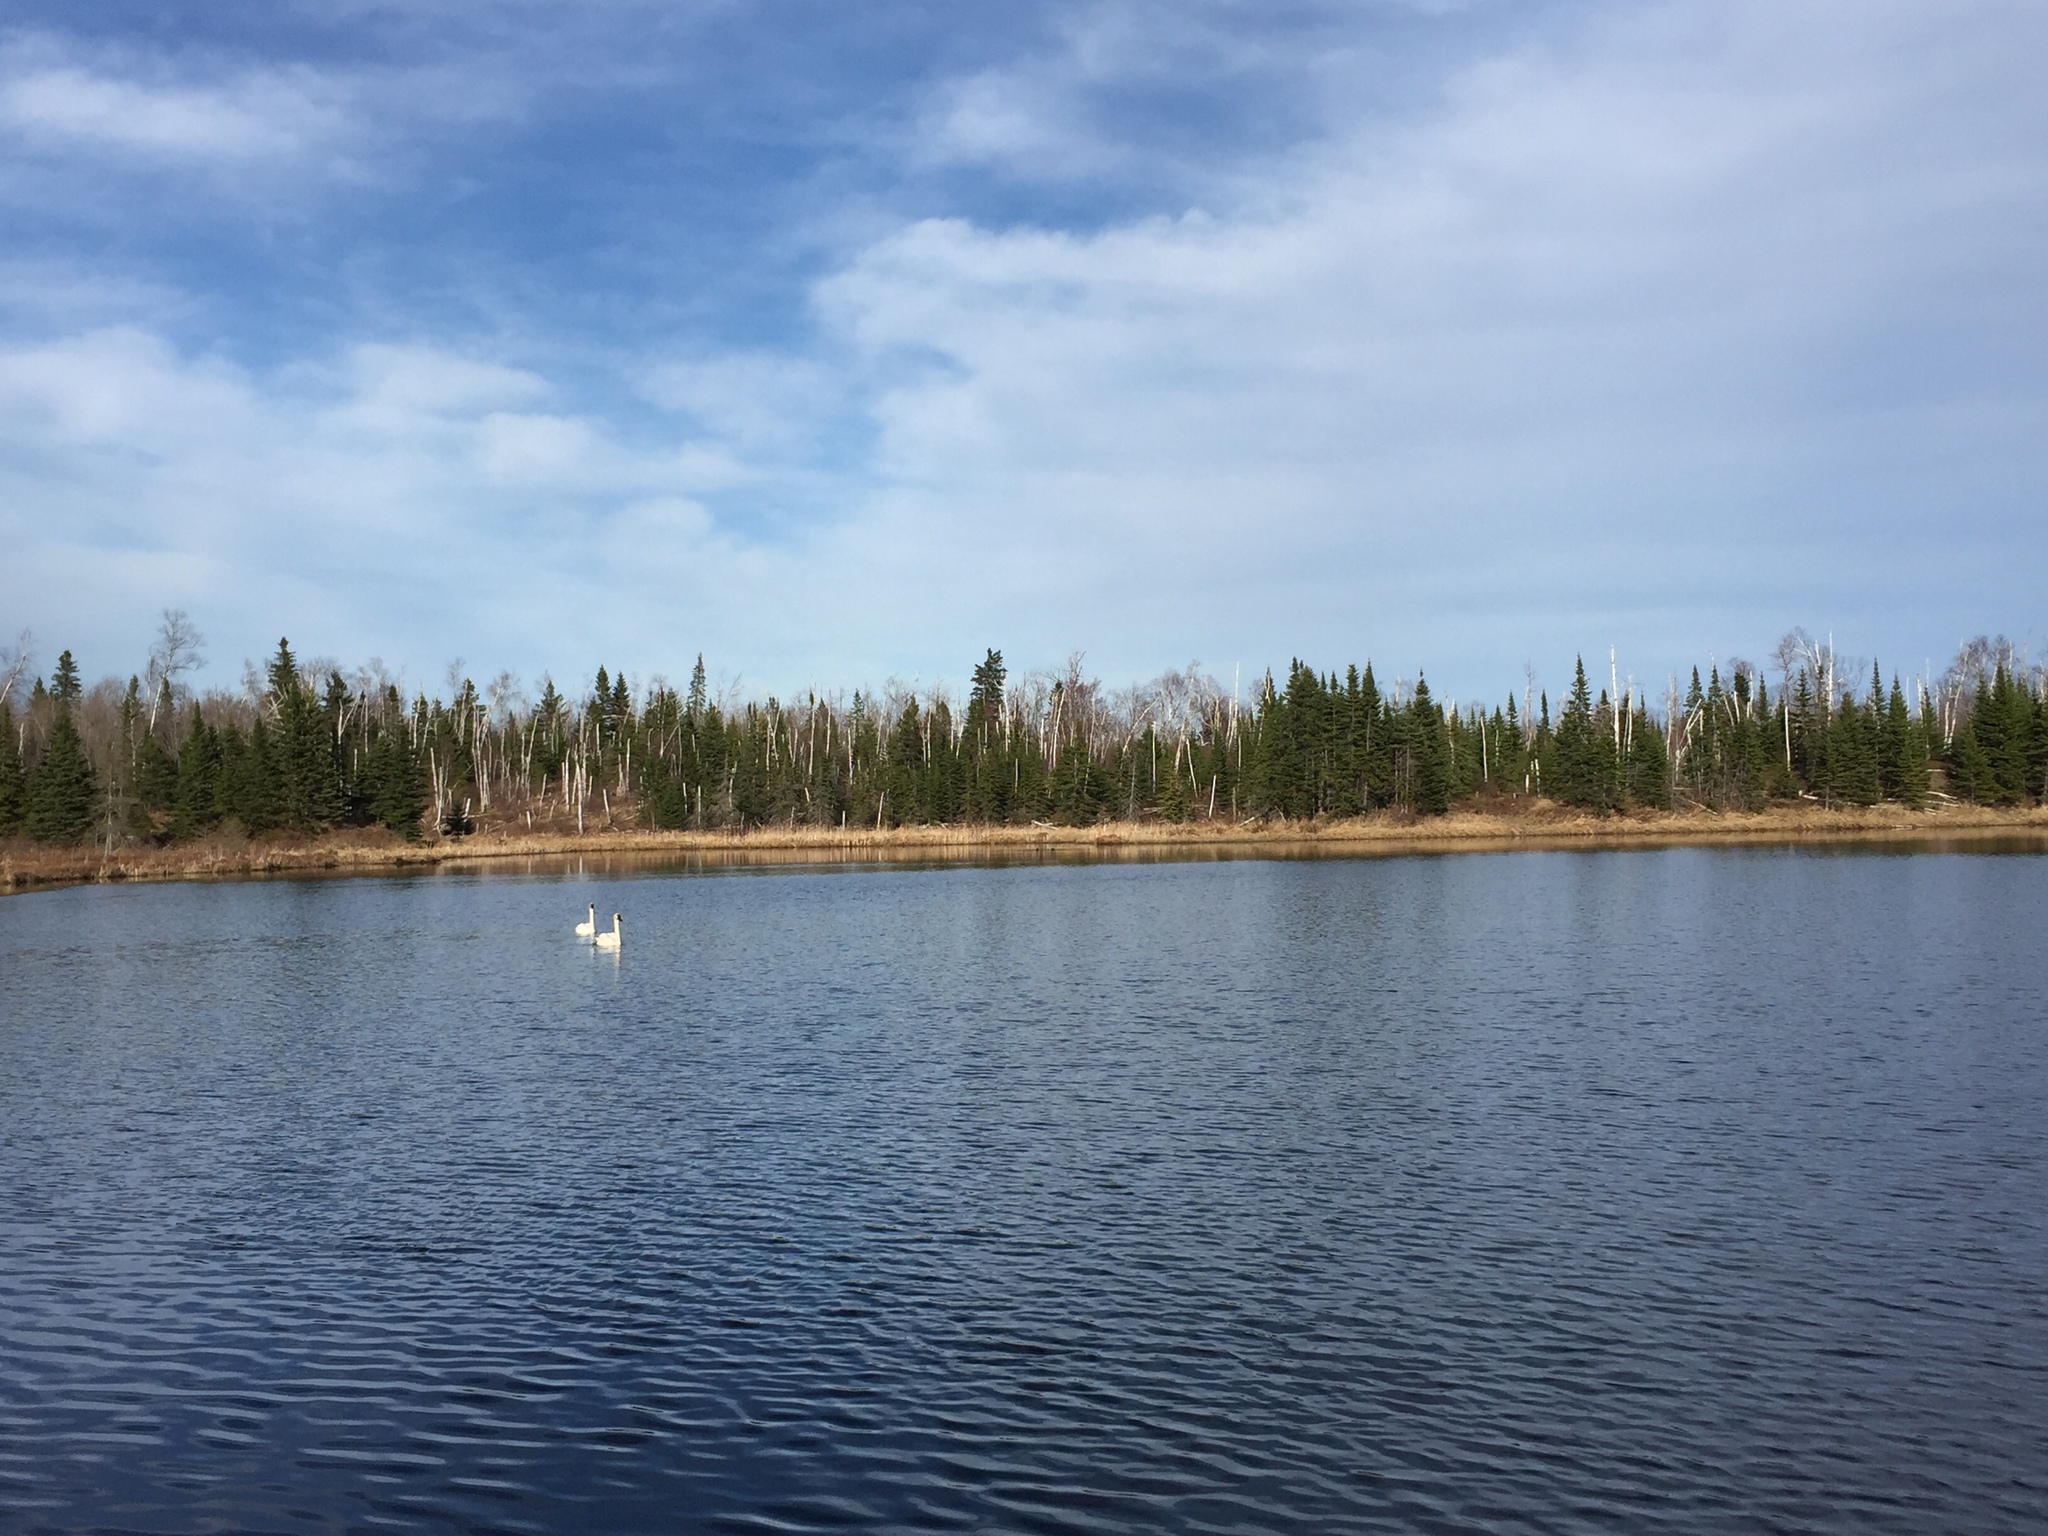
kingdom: Animalia
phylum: Chordata
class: Aves
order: Anseriformes
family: Anatidae
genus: Cygnus
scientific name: Cygnus buccinator
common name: Trumpeter swan
